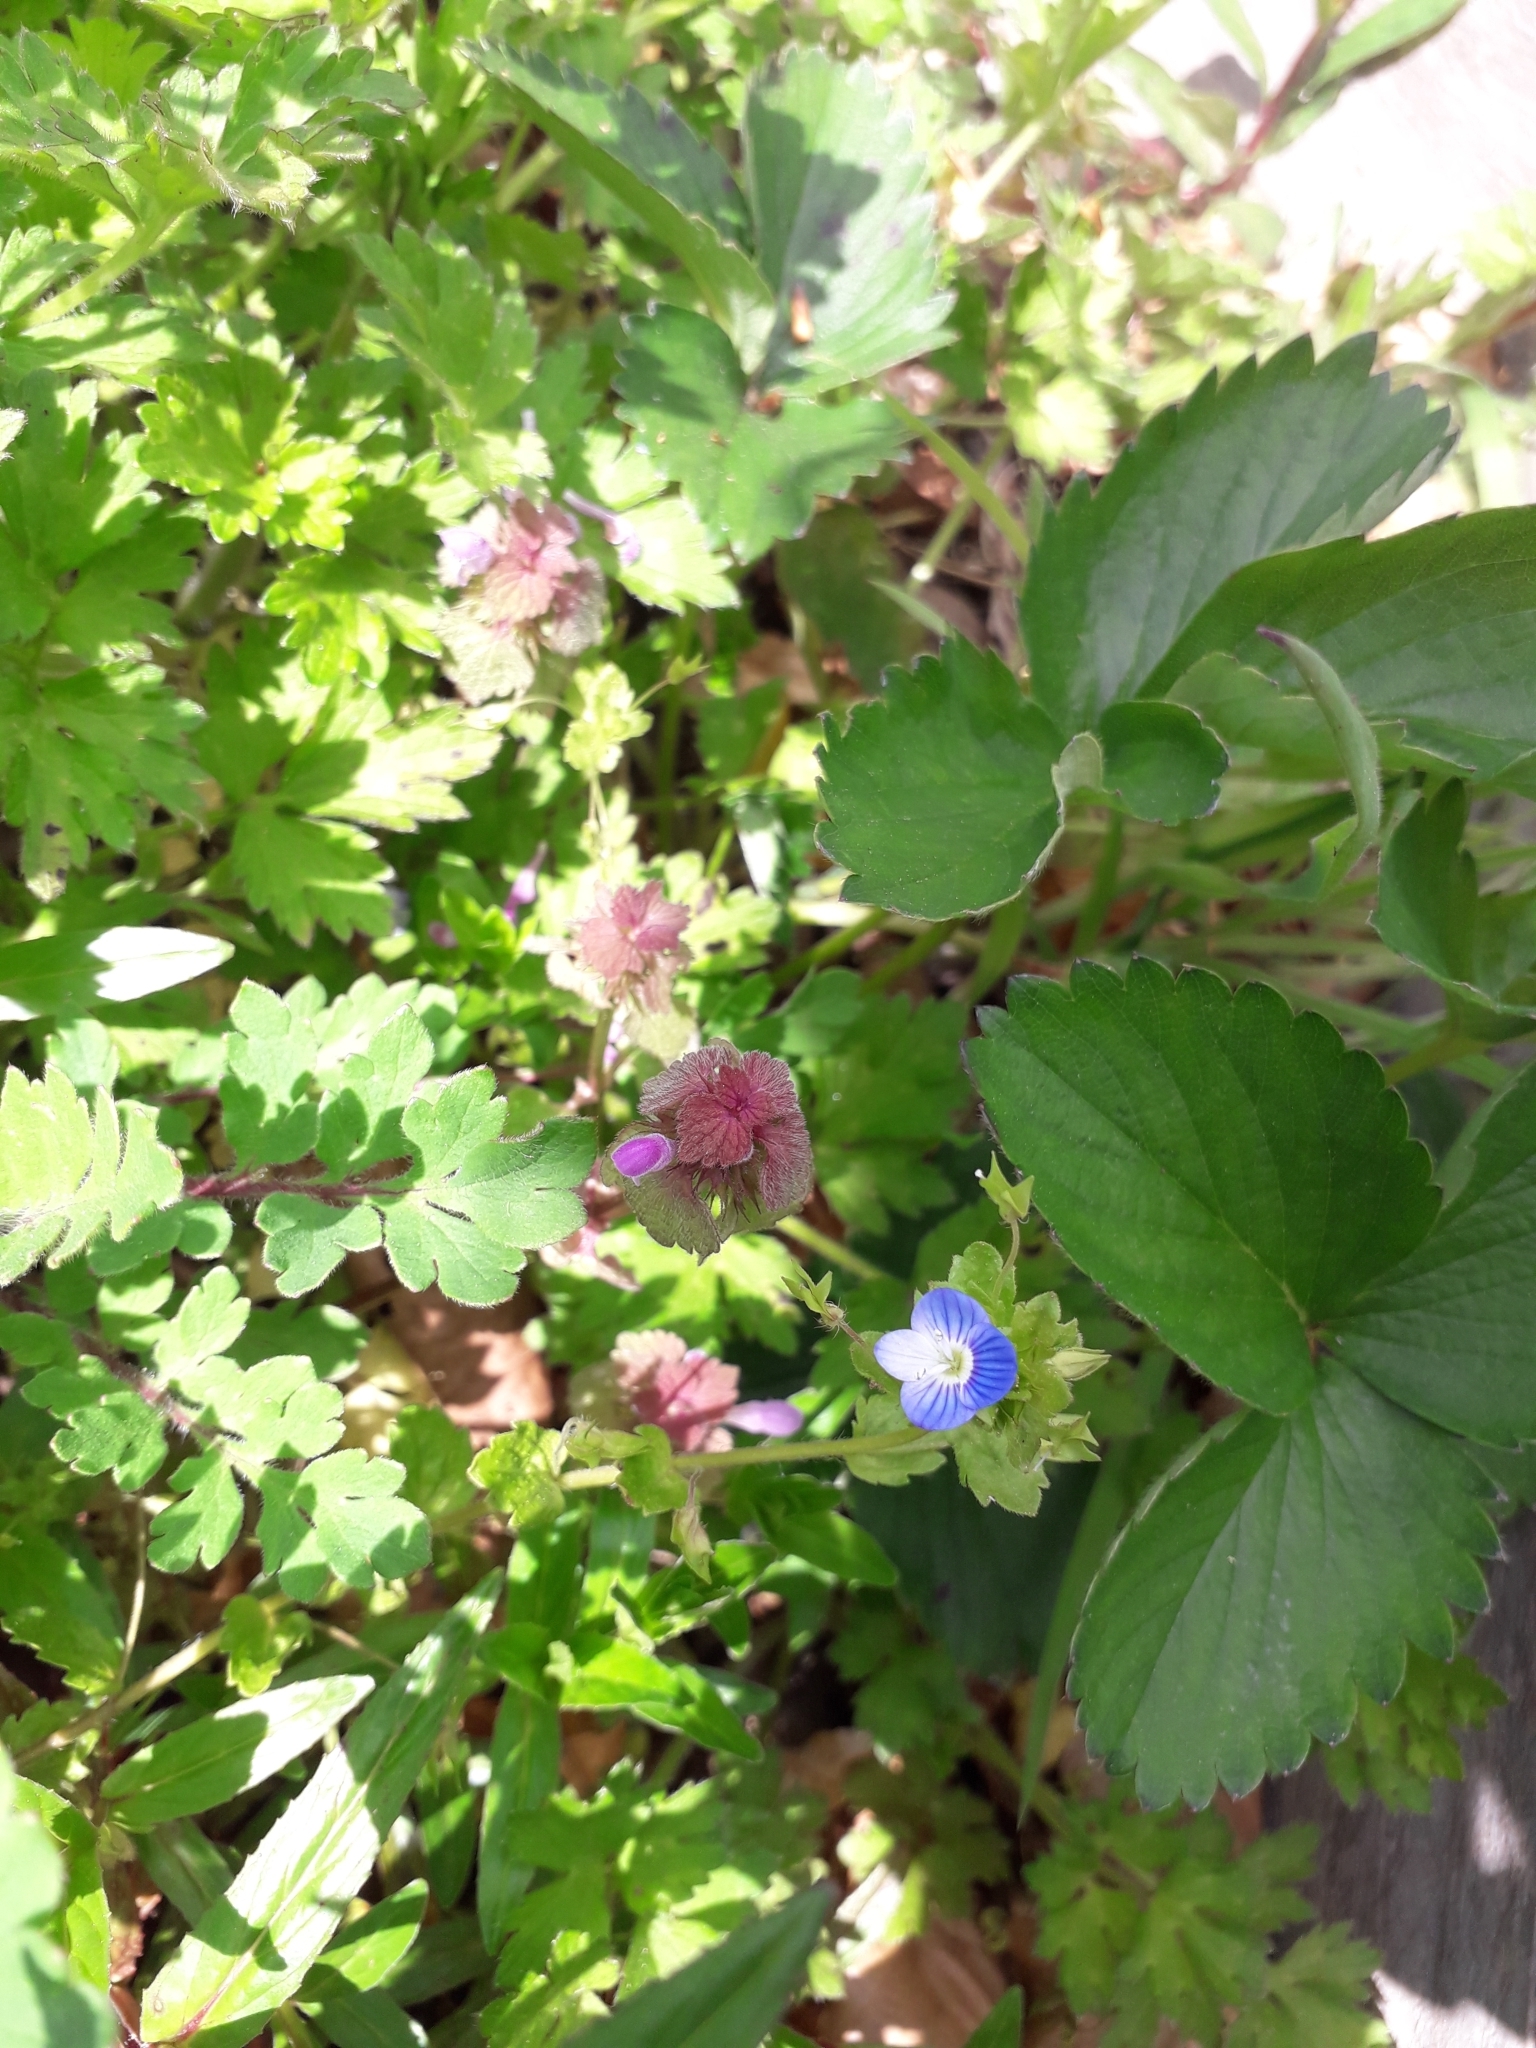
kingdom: Plantae
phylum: Tracheophyta
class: Magnoliopsida
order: Lamiales
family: Lamiaceae
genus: Lamium
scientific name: Lamium purpureum
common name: Red dead-nettle
